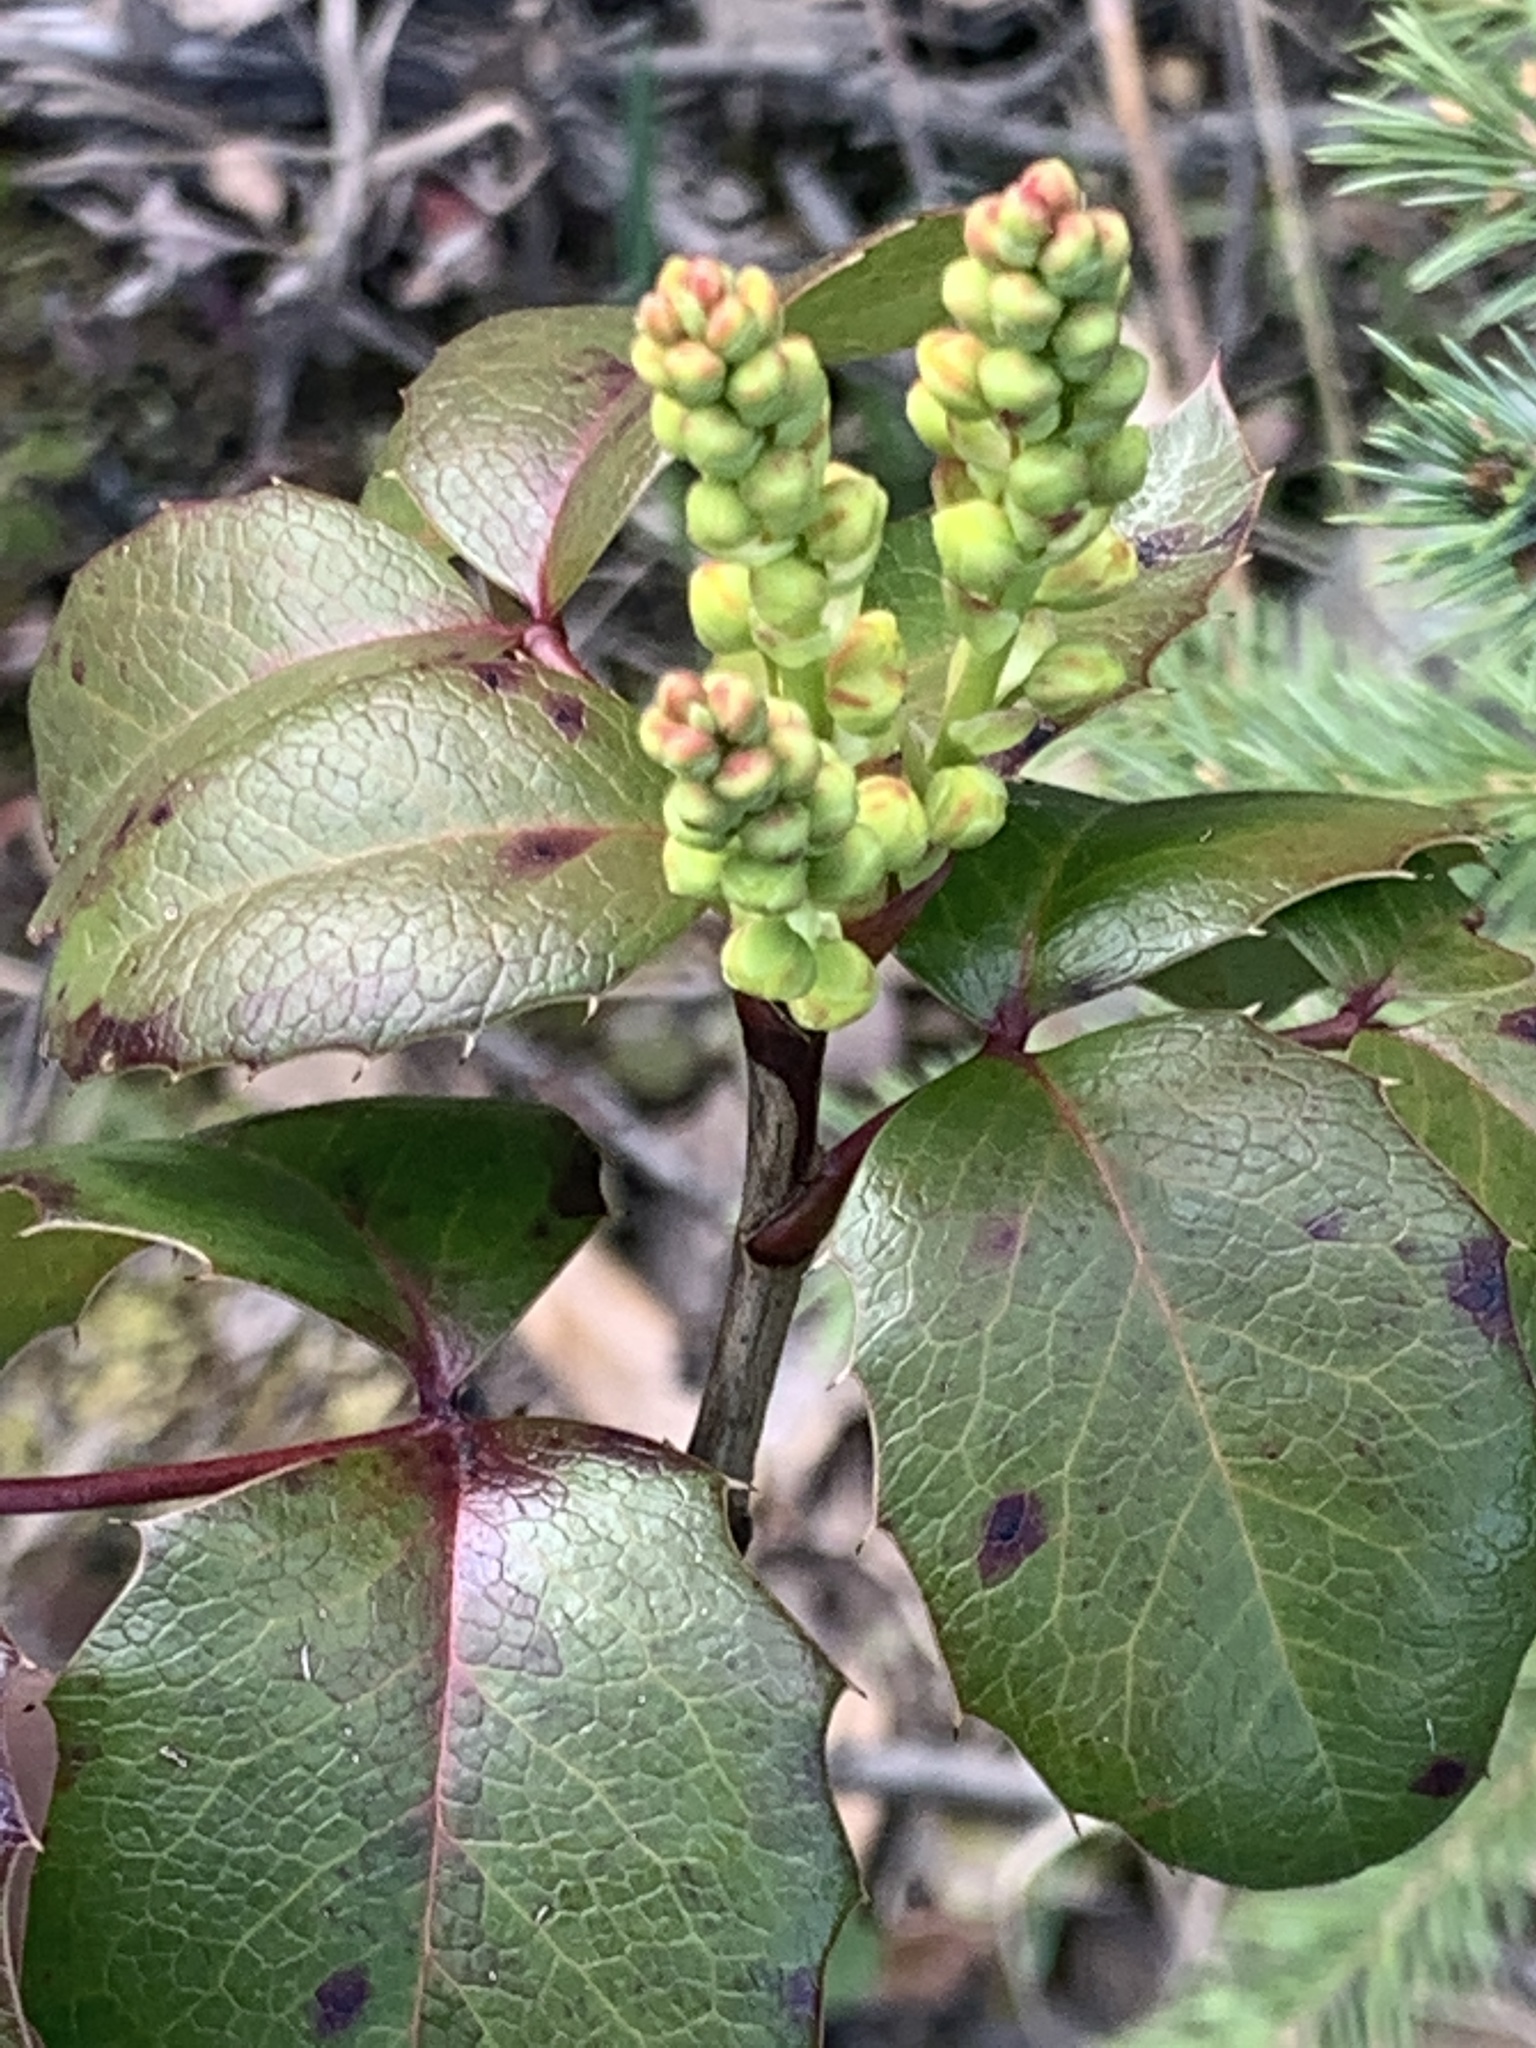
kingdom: Plantae
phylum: Tracheophyta
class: Magnoliopsida
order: Ranunculales
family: Berberidaceae
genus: Mahonia
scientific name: Mahonia aquifolium
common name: Oregon-grape
